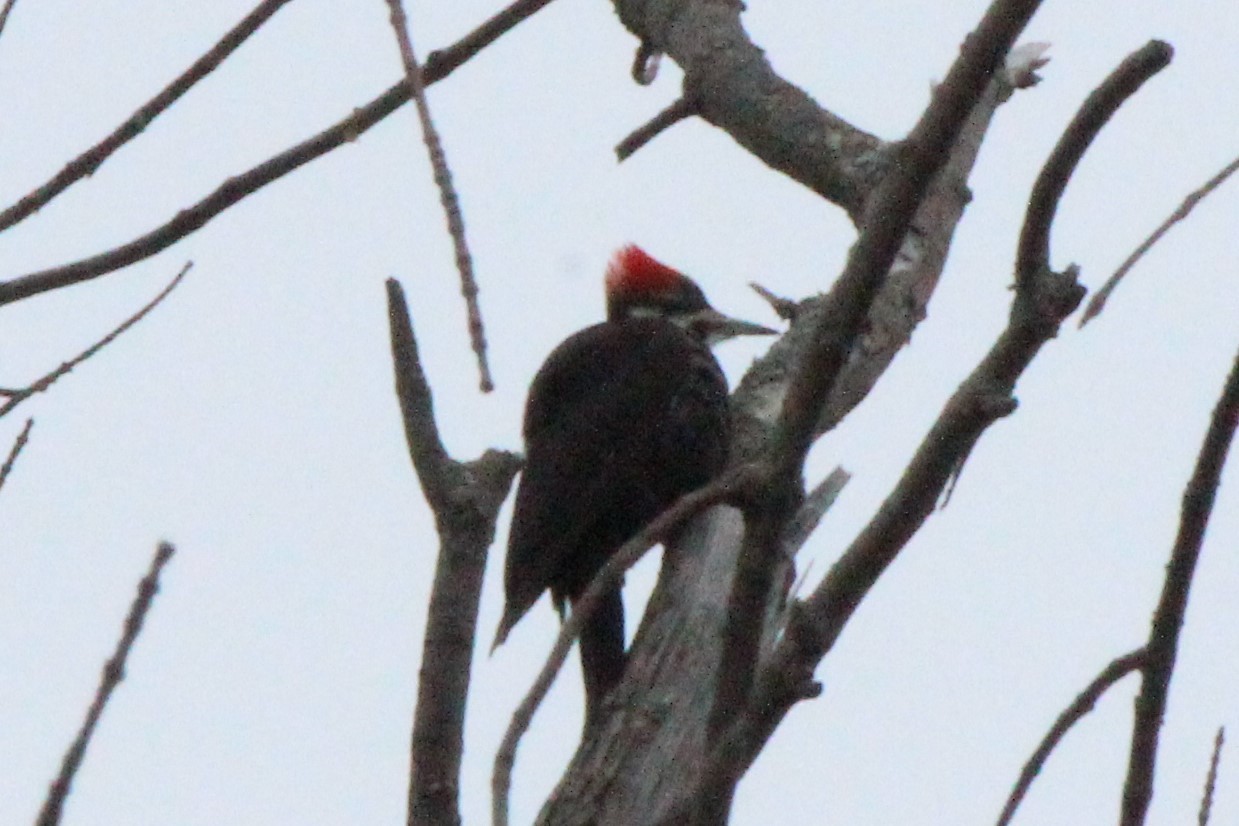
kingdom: Animalia
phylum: Chordata
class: Aves
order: Piciformes
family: Picidae
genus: Dryocopus
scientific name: Dryocopus pileatus
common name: Pileated woodpecker
